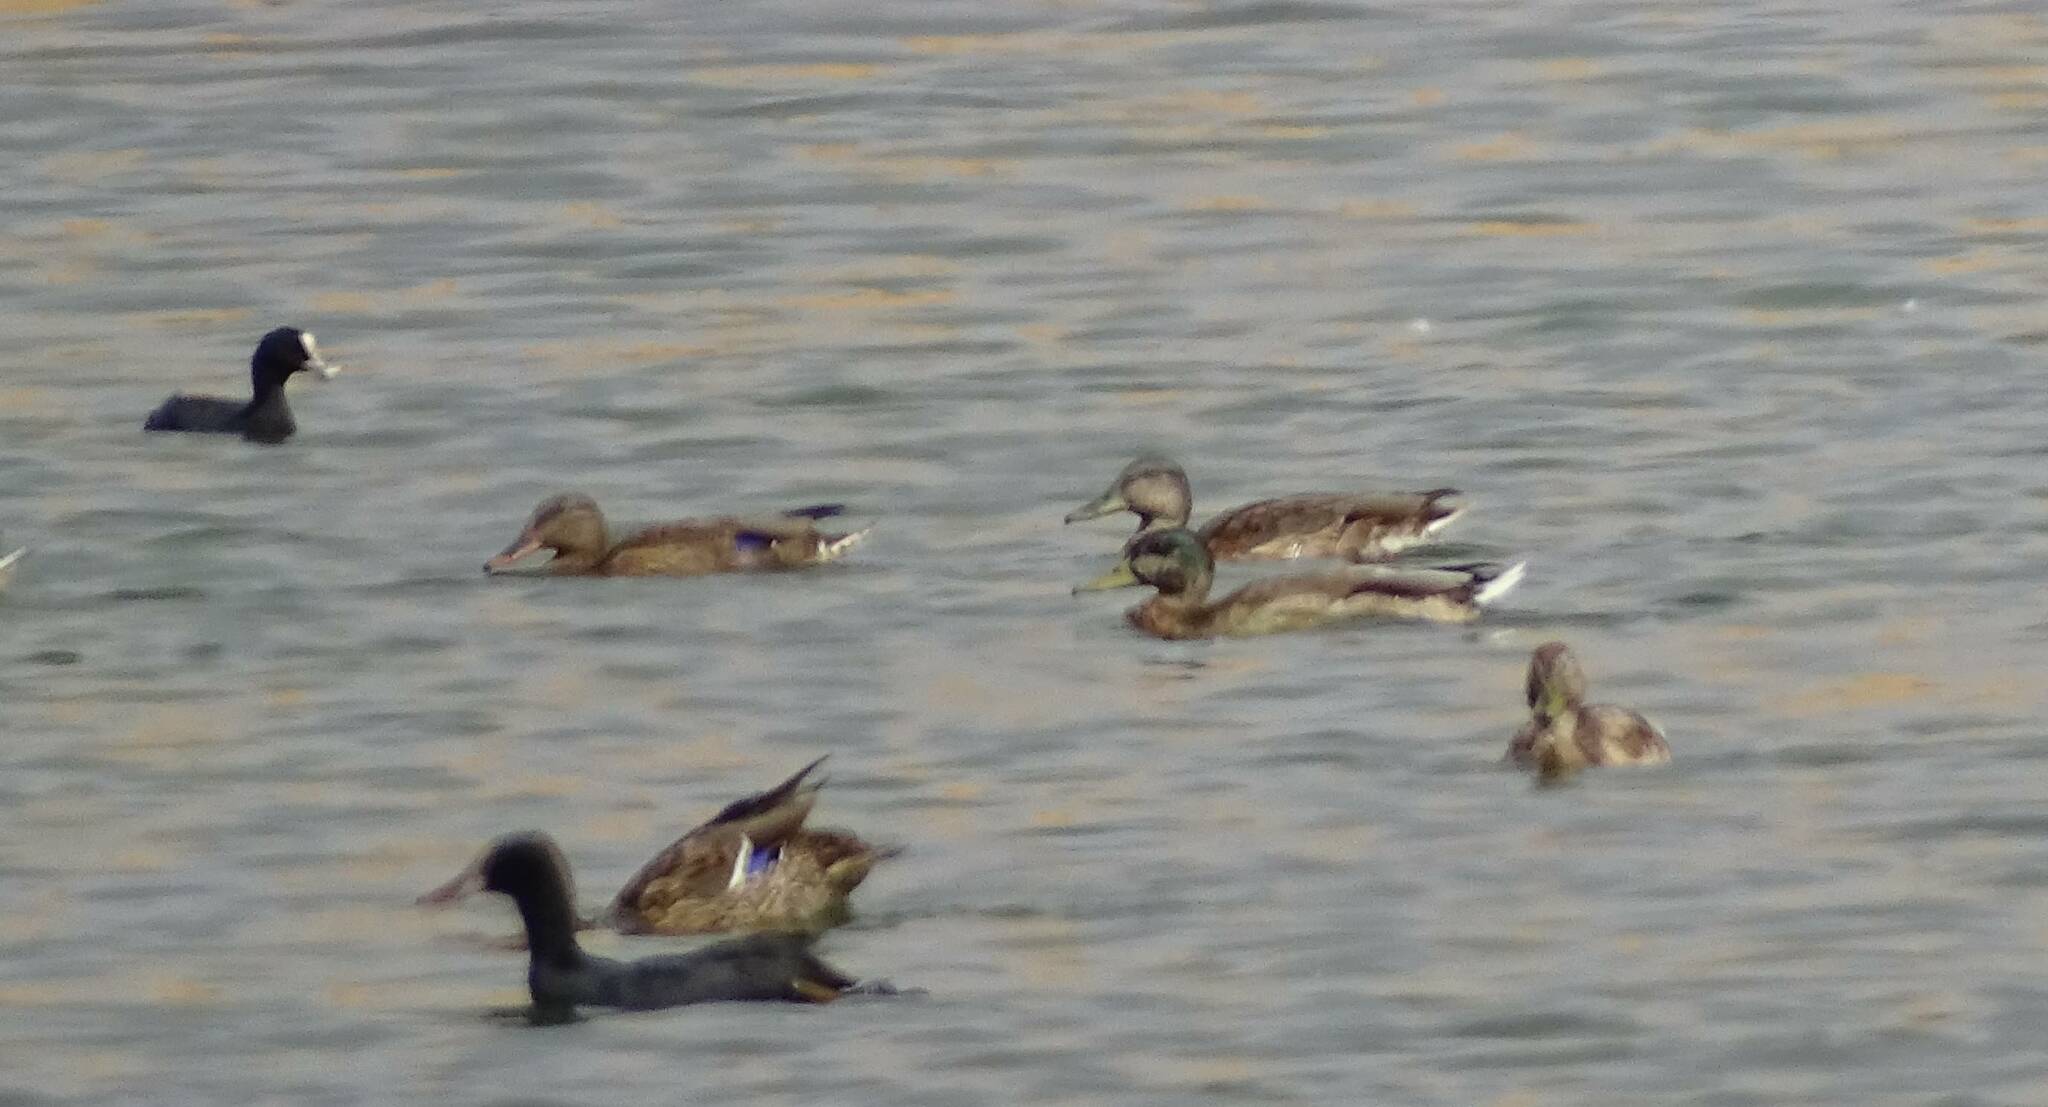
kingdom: Animalia
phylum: Chordata
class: Aves
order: Anseriformes
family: Anatidae
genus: Anas
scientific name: Anas platyrhynchos
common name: Mallard
